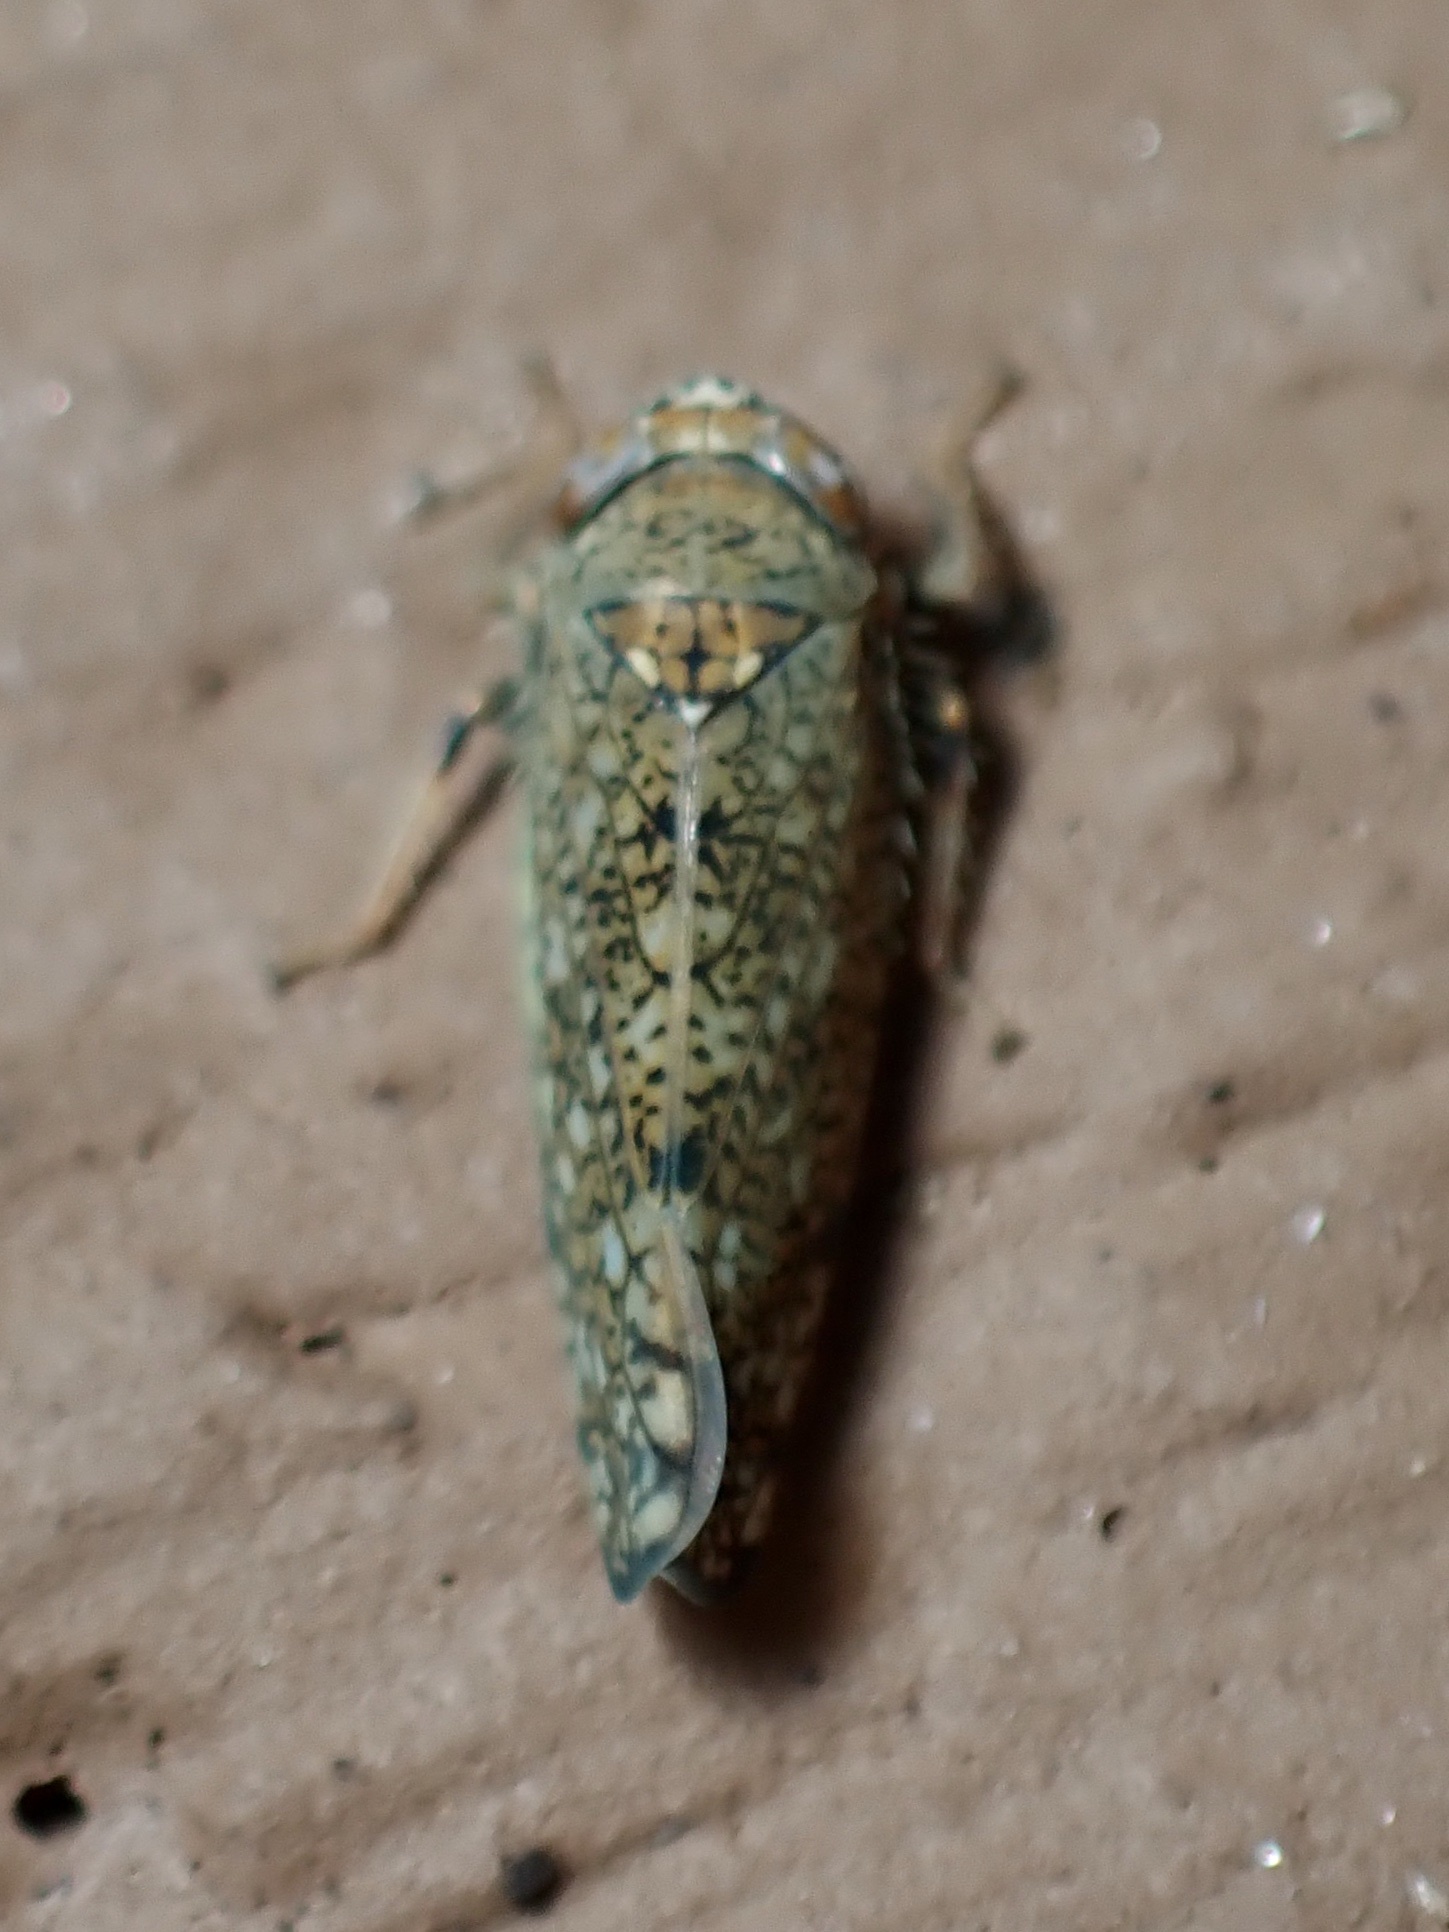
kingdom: Animalia
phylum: Arthropoda
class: Insecta
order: Hemiptera
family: Cicadellidae
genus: Orientus
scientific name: Orientus ishidae
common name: Japanese leafhopper
